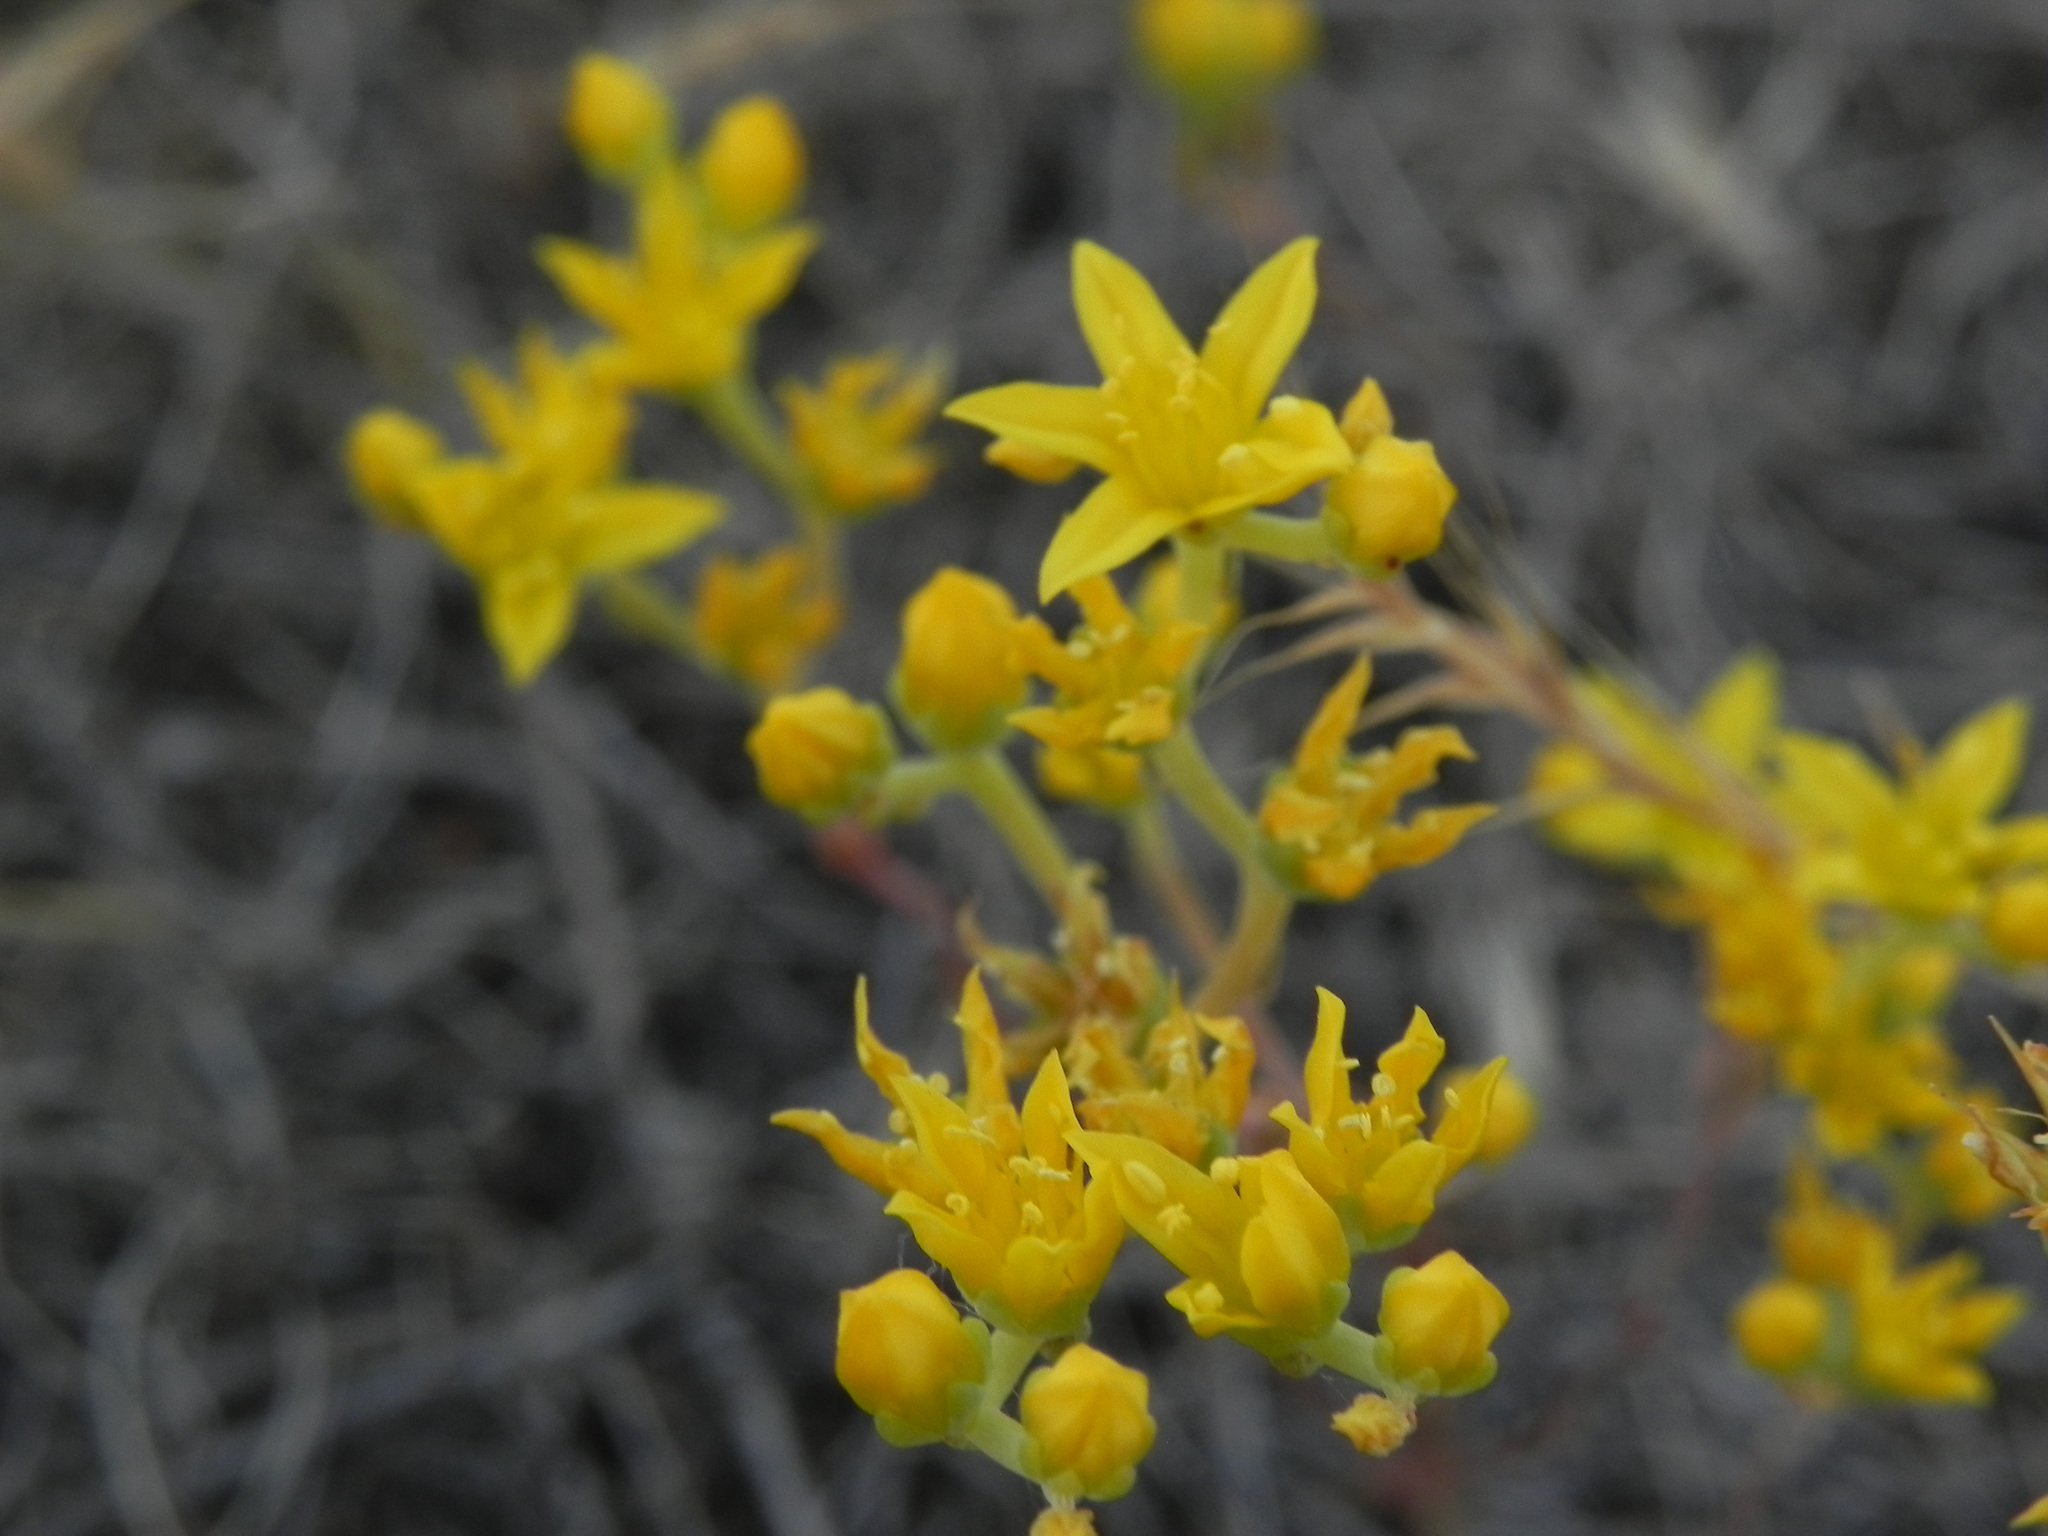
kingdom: Plantae
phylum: Tracheophyta
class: Magnoliopsida
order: Saxifragales
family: Crassulaceae
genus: Dudleya
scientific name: Dudleya variegata
